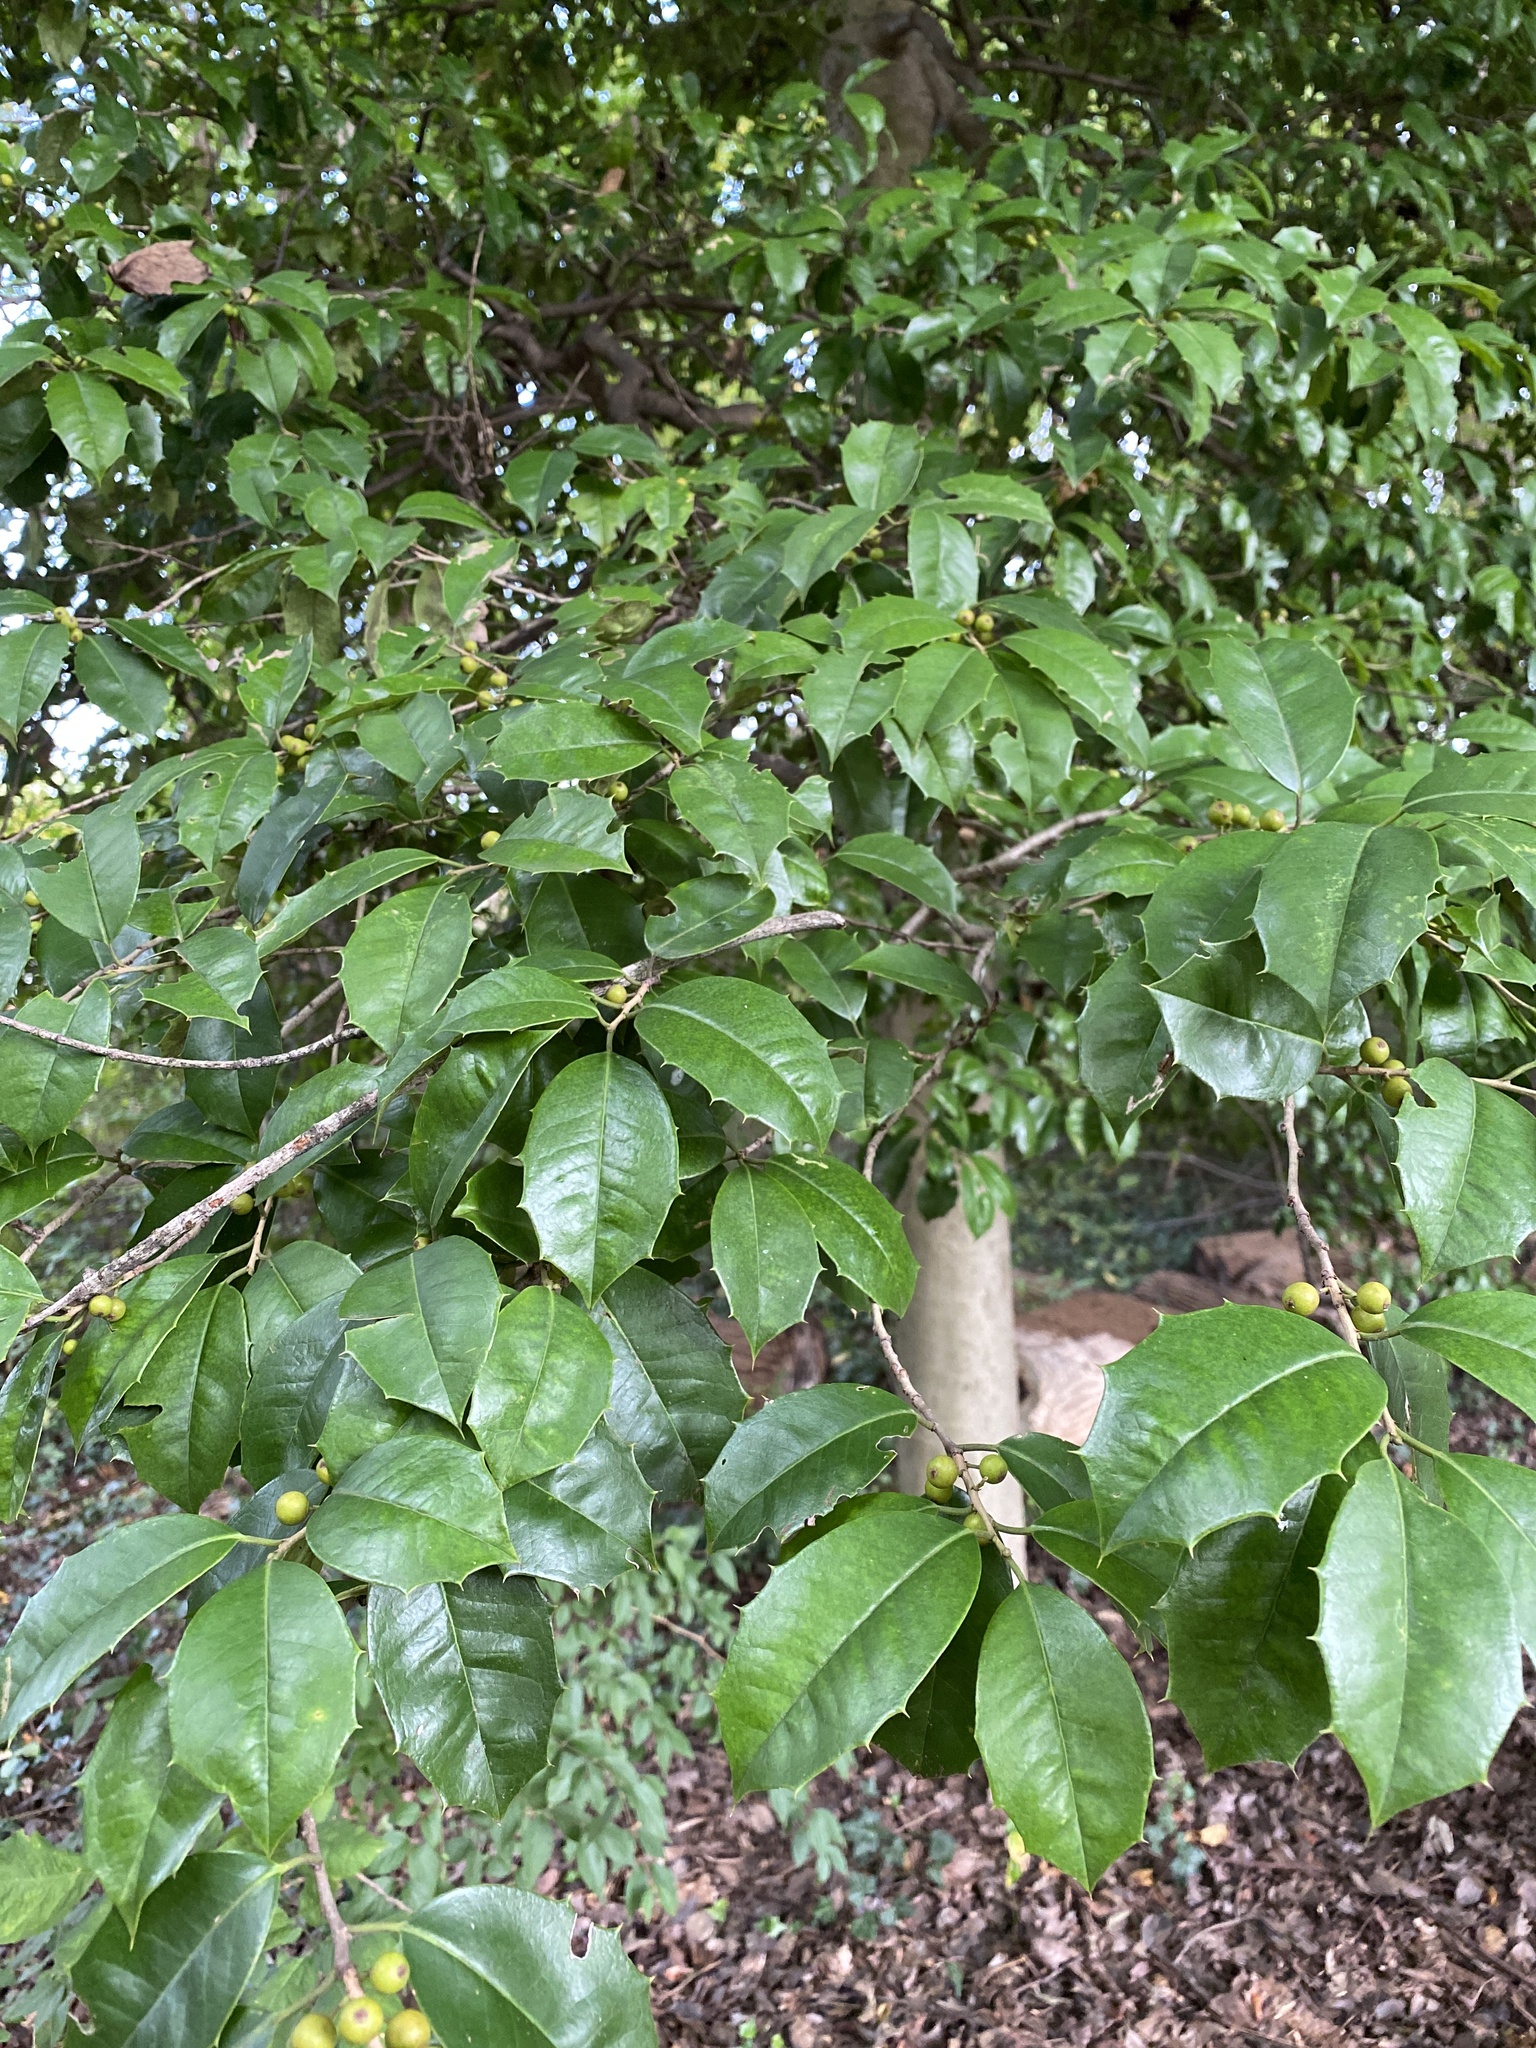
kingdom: Plantae
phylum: Tracheophyta
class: Magnoliopsida
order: Aquifoliales
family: Aquifoliaceae
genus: Ilex
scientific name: Ilex opaca
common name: American holly
